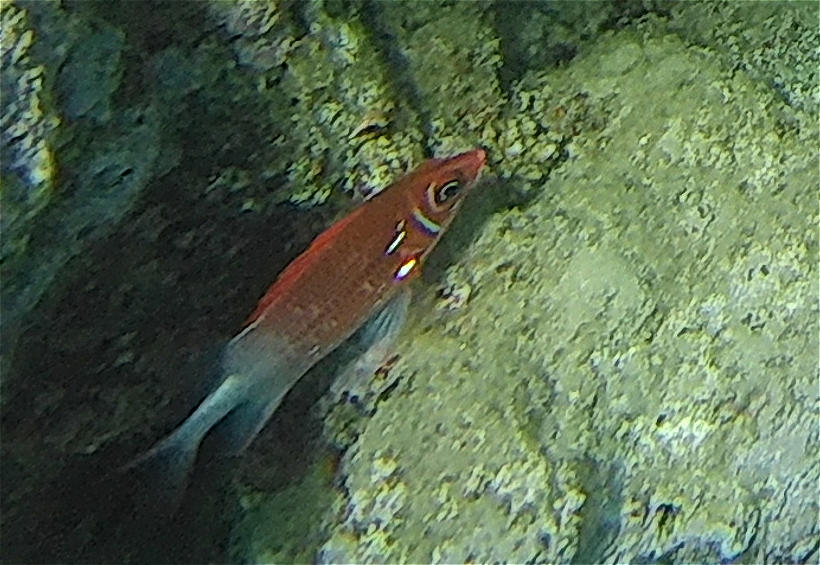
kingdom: Animalia
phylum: Chordata
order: Beryciformes
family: Holocentridae
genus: Sargocentron
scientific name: Sargocentron caudimaculatum
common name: Fanfin soldier
